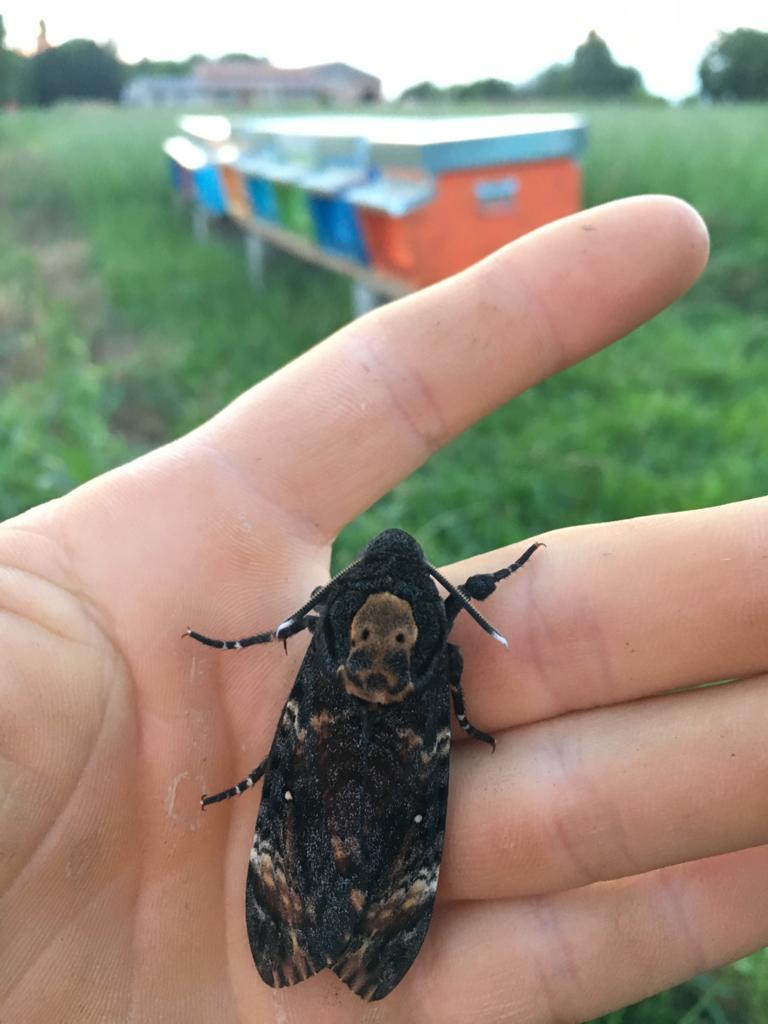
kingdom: Animalia
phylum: Arthropoda
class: Insecta
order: Lepidoptera
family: Sphingidae
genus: Acherontia
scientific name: Acherontia atropos
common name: Death's-head hawk moth
